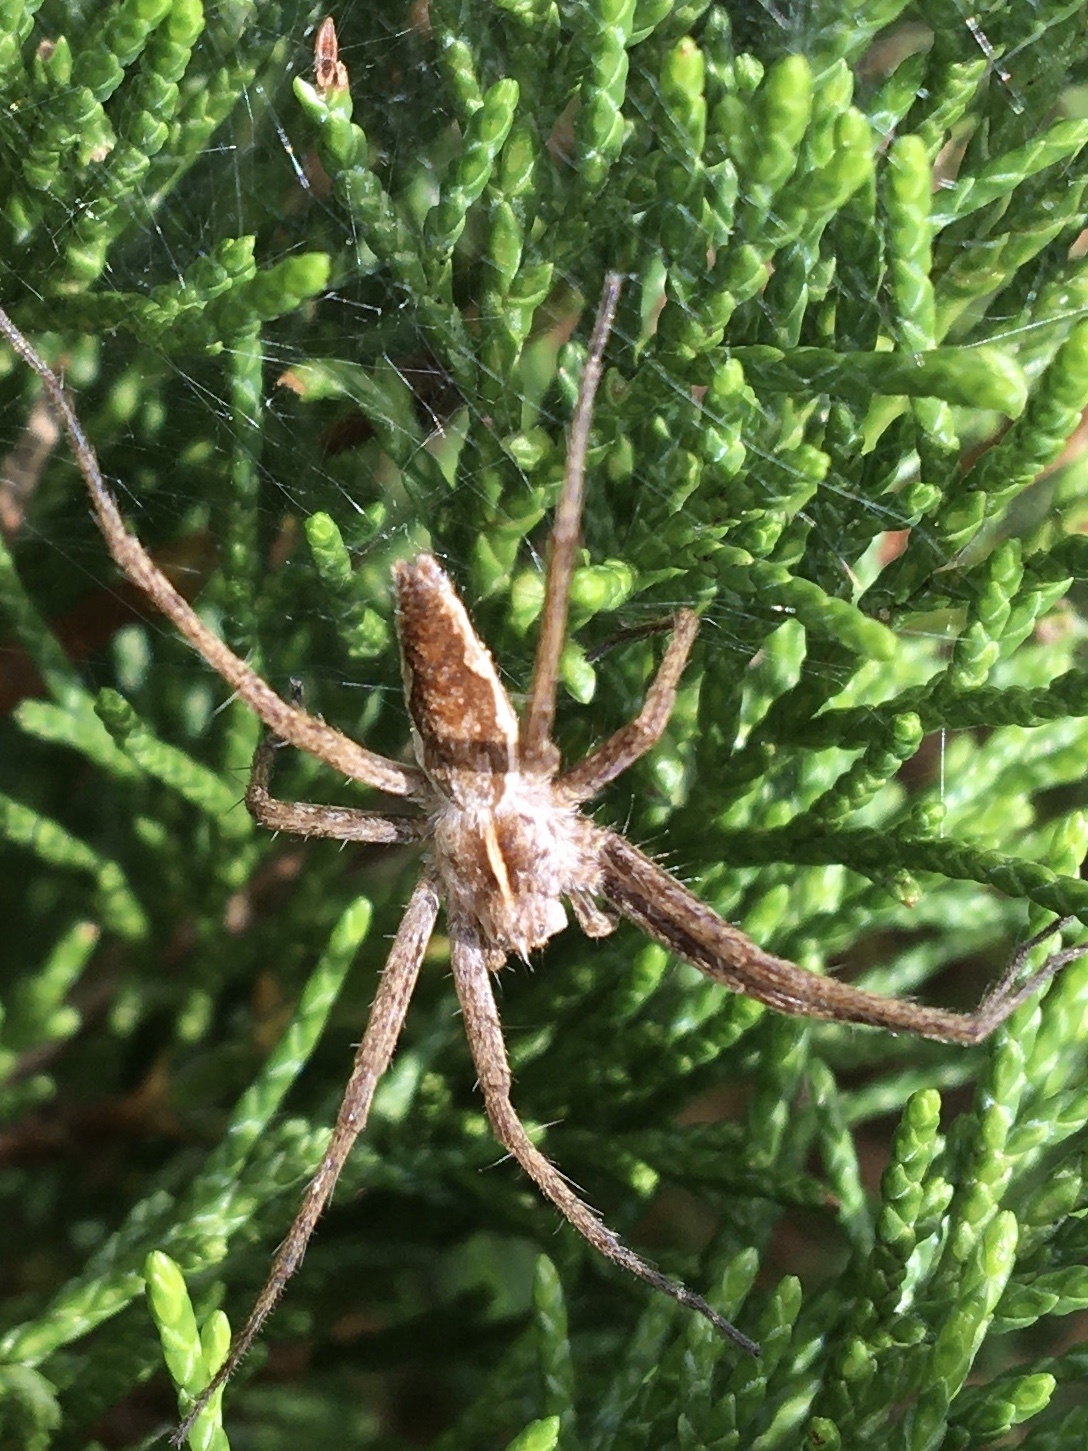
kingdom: Animalia
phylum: Arthropoda
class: Arachnida
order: Araneae
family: Pisauridae
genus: Pisaura
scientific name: Pisaura mirabilis
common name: Tent spider
